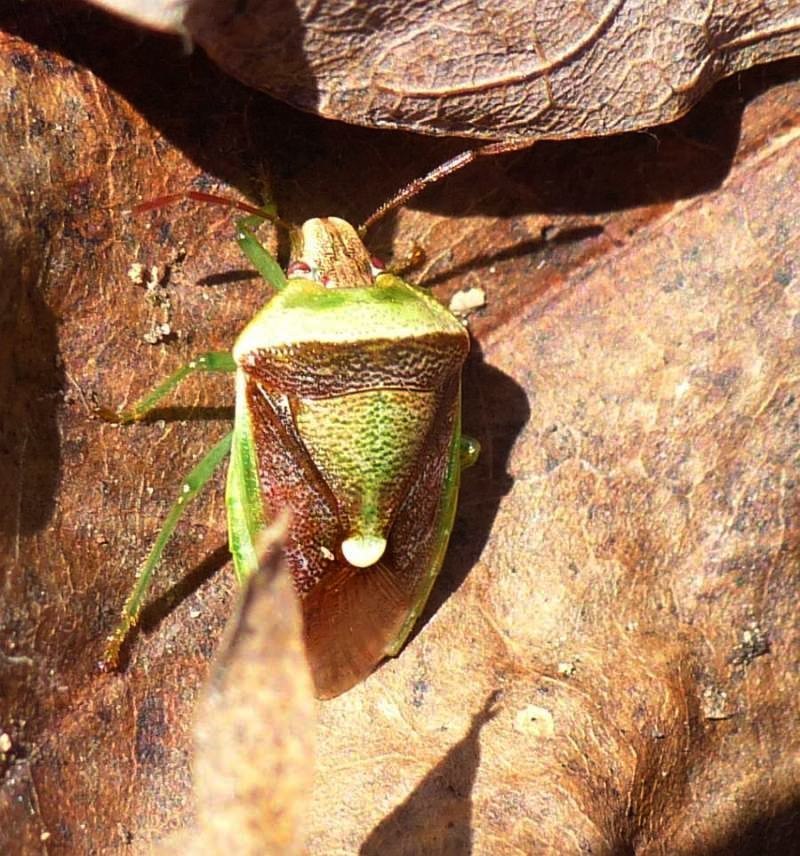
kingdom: Animalia
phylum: Arthropoda
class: Insecta
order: Hemiptera
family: Pentatomidae
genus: Banasa
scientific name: Banasa dimidiata
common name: Green burgundy stink bug
